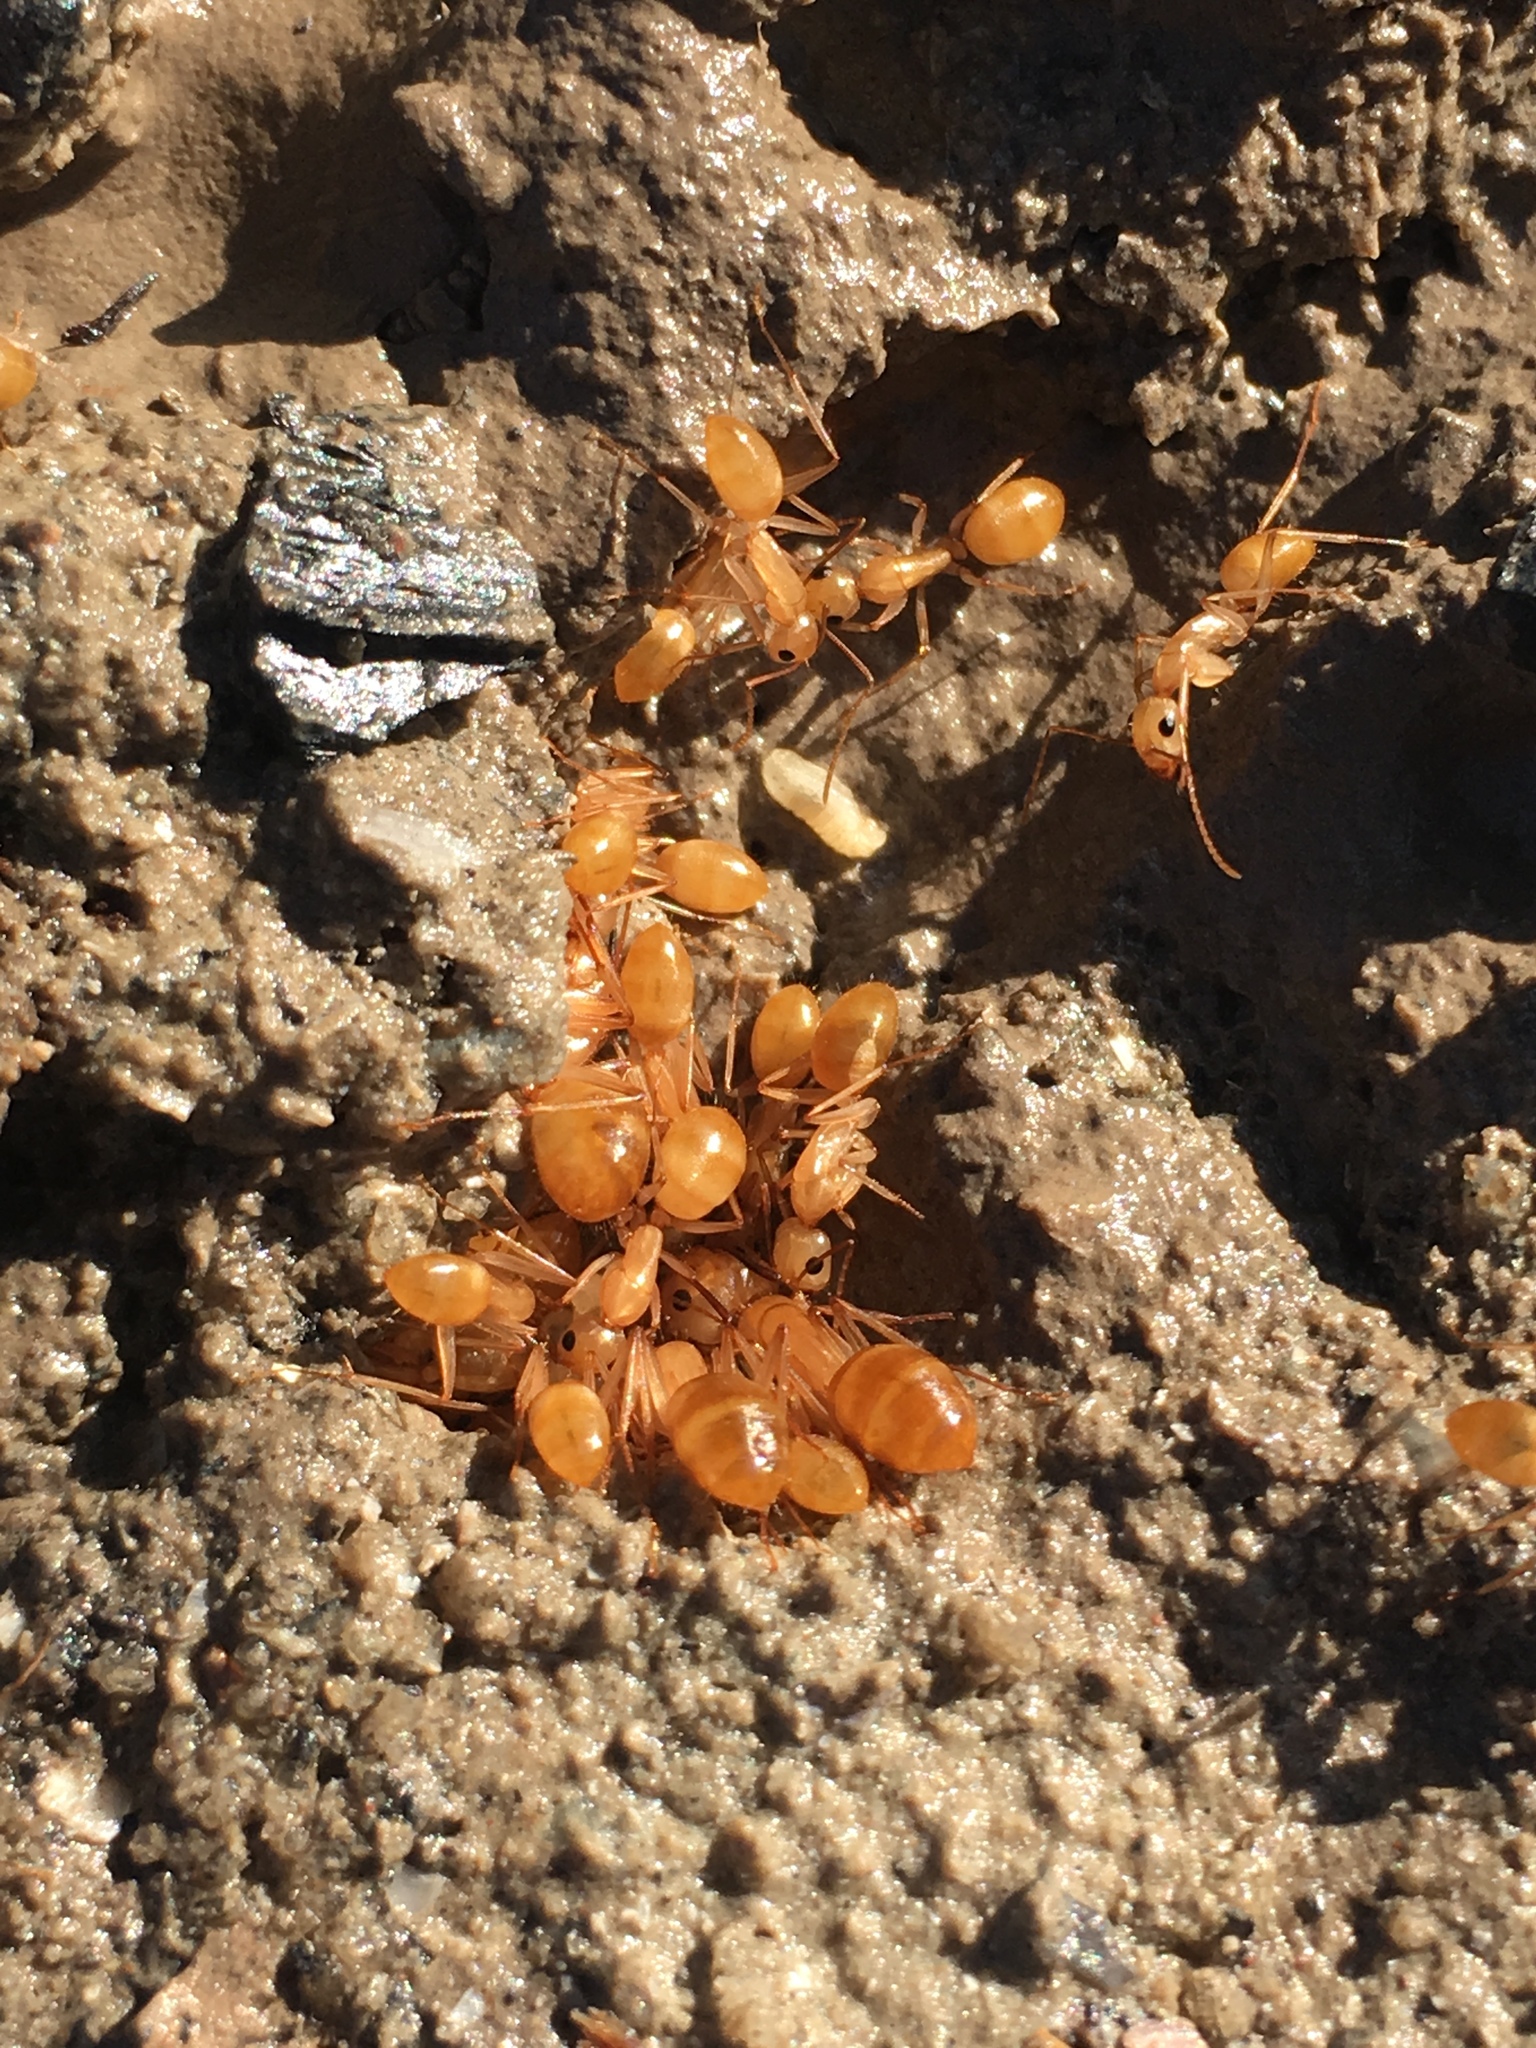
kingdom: Animalia
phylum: Arthropoda
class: Insecta
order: Hymenoptera
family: Formicidae
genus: Camponotus
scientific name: Camponotus fragilis
